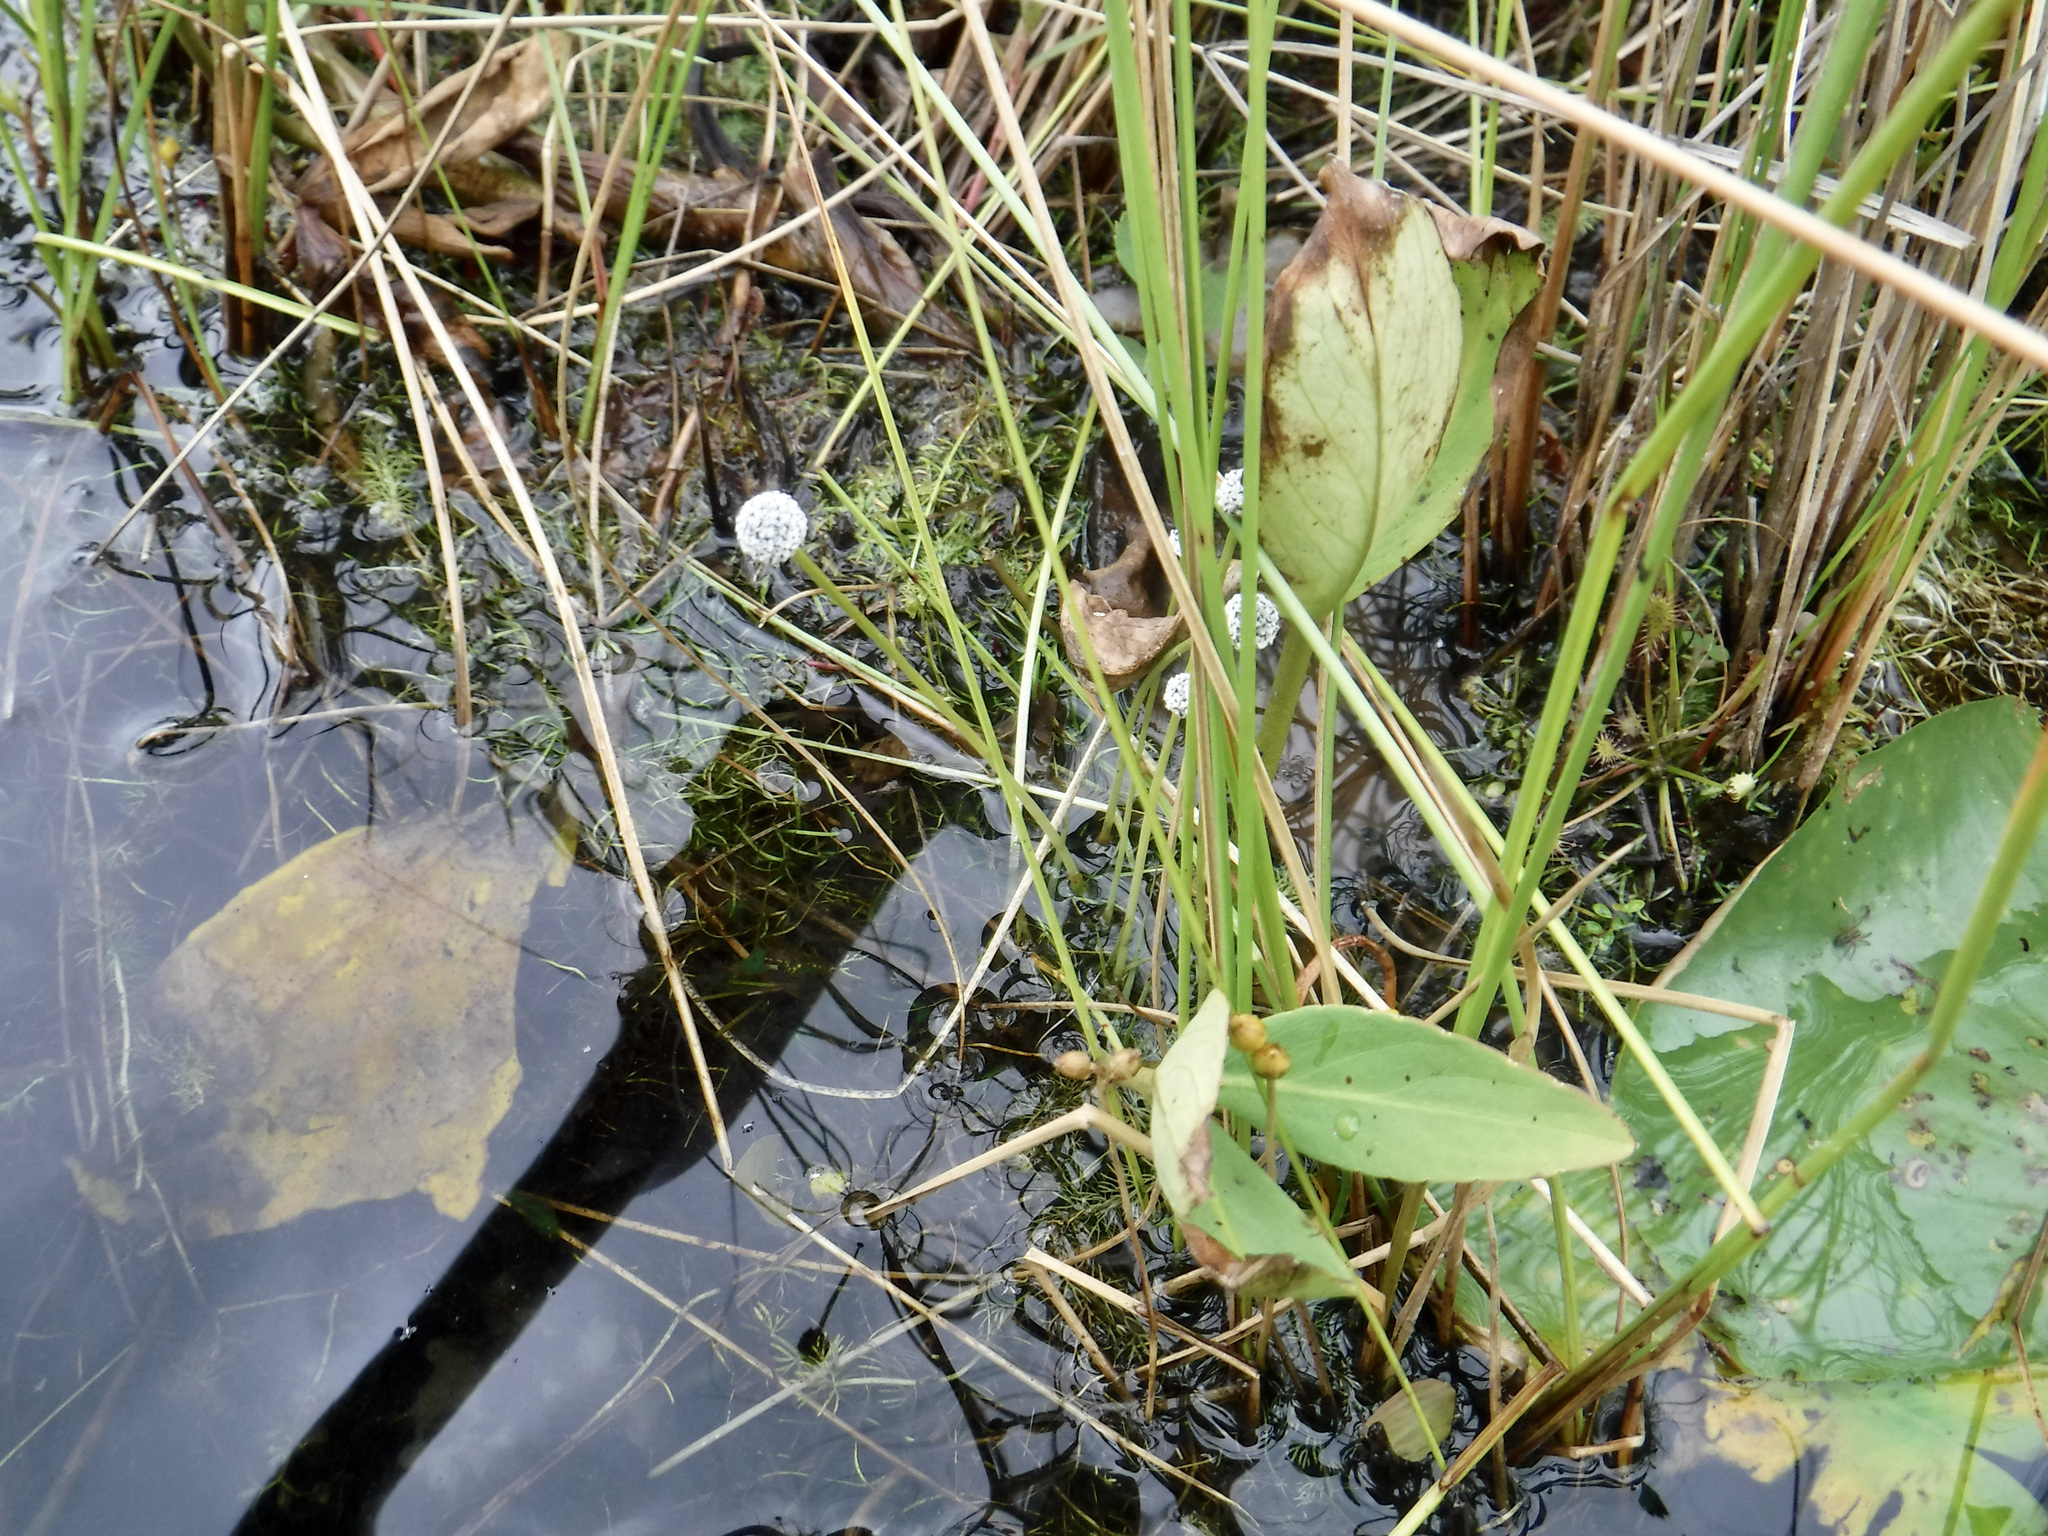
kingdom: Plantae
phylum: Tracheophyta
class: Liliopsida
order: Poales
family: Eriocaulaceae
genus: Eriocaulon
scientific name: Eriocaulon aquaticum
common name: Pipewort
